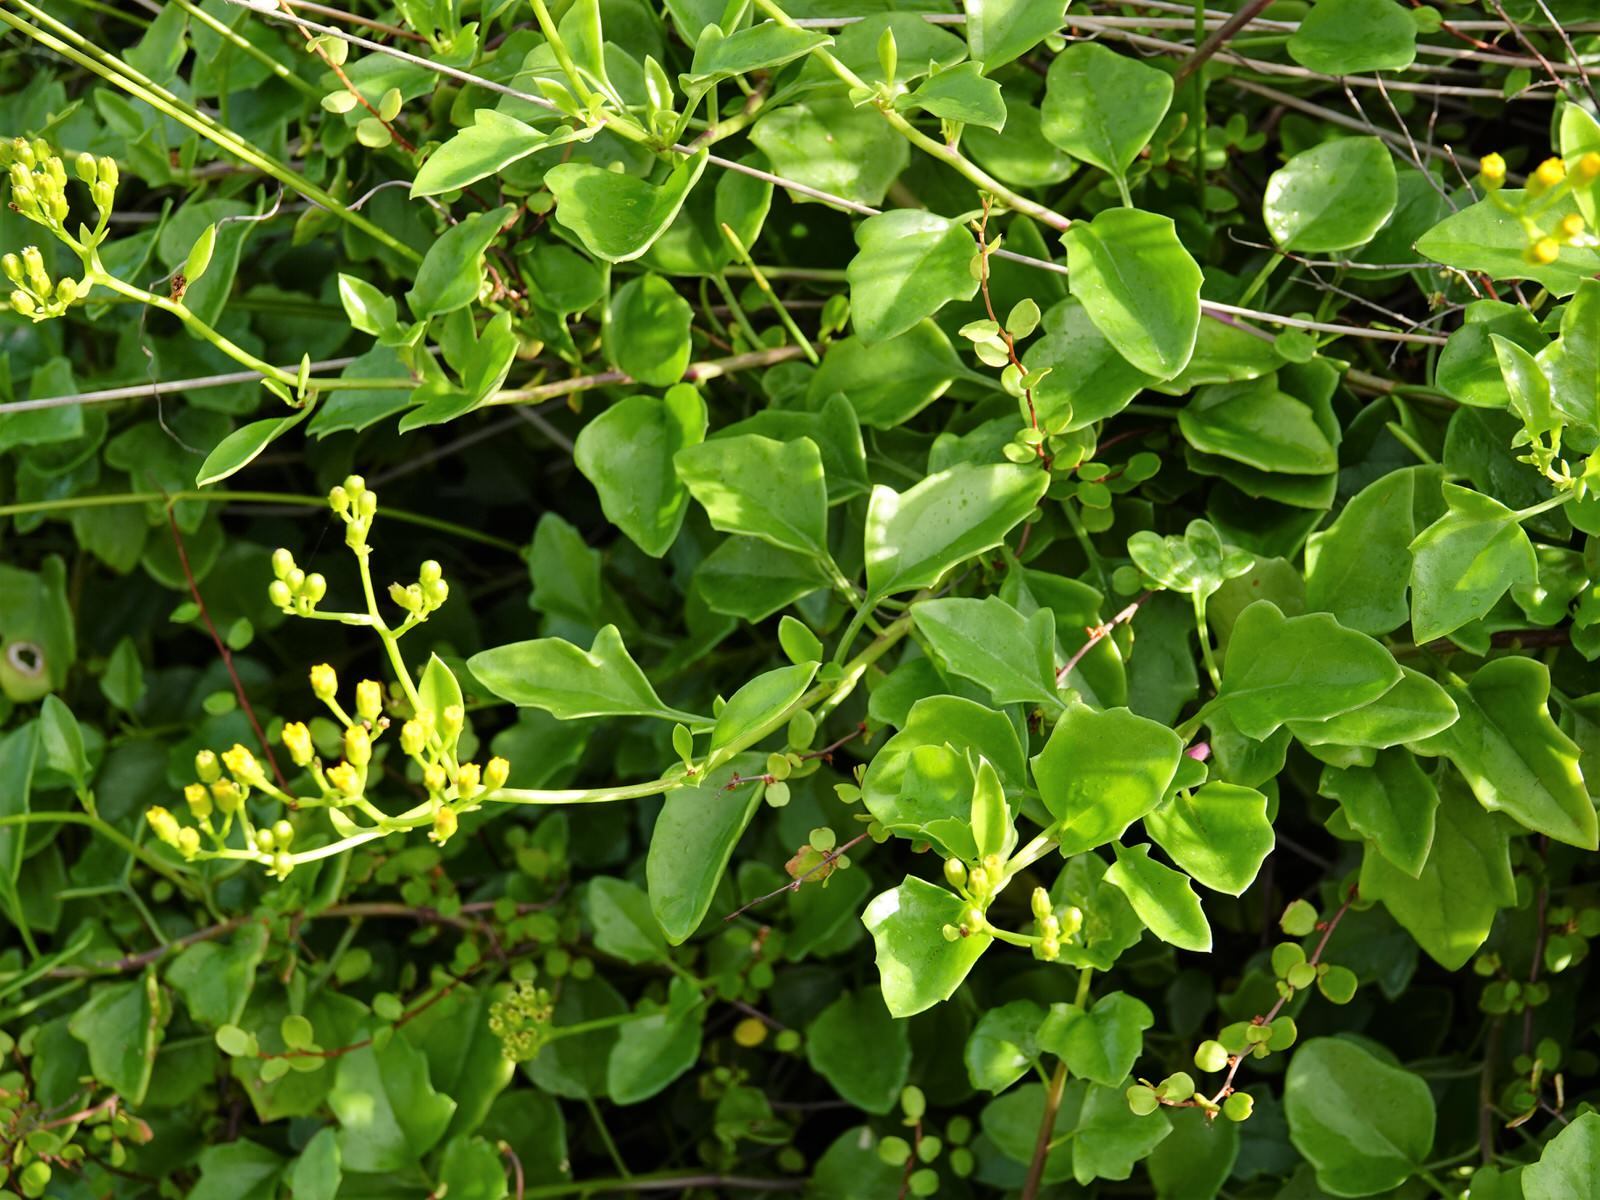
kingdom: Plantae
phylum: Tracheophyta
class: Magnoliopsida
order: Asterales
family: Asteraceae
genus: Senecio
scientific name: Senecio angulatus
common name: Climbing groundsel
